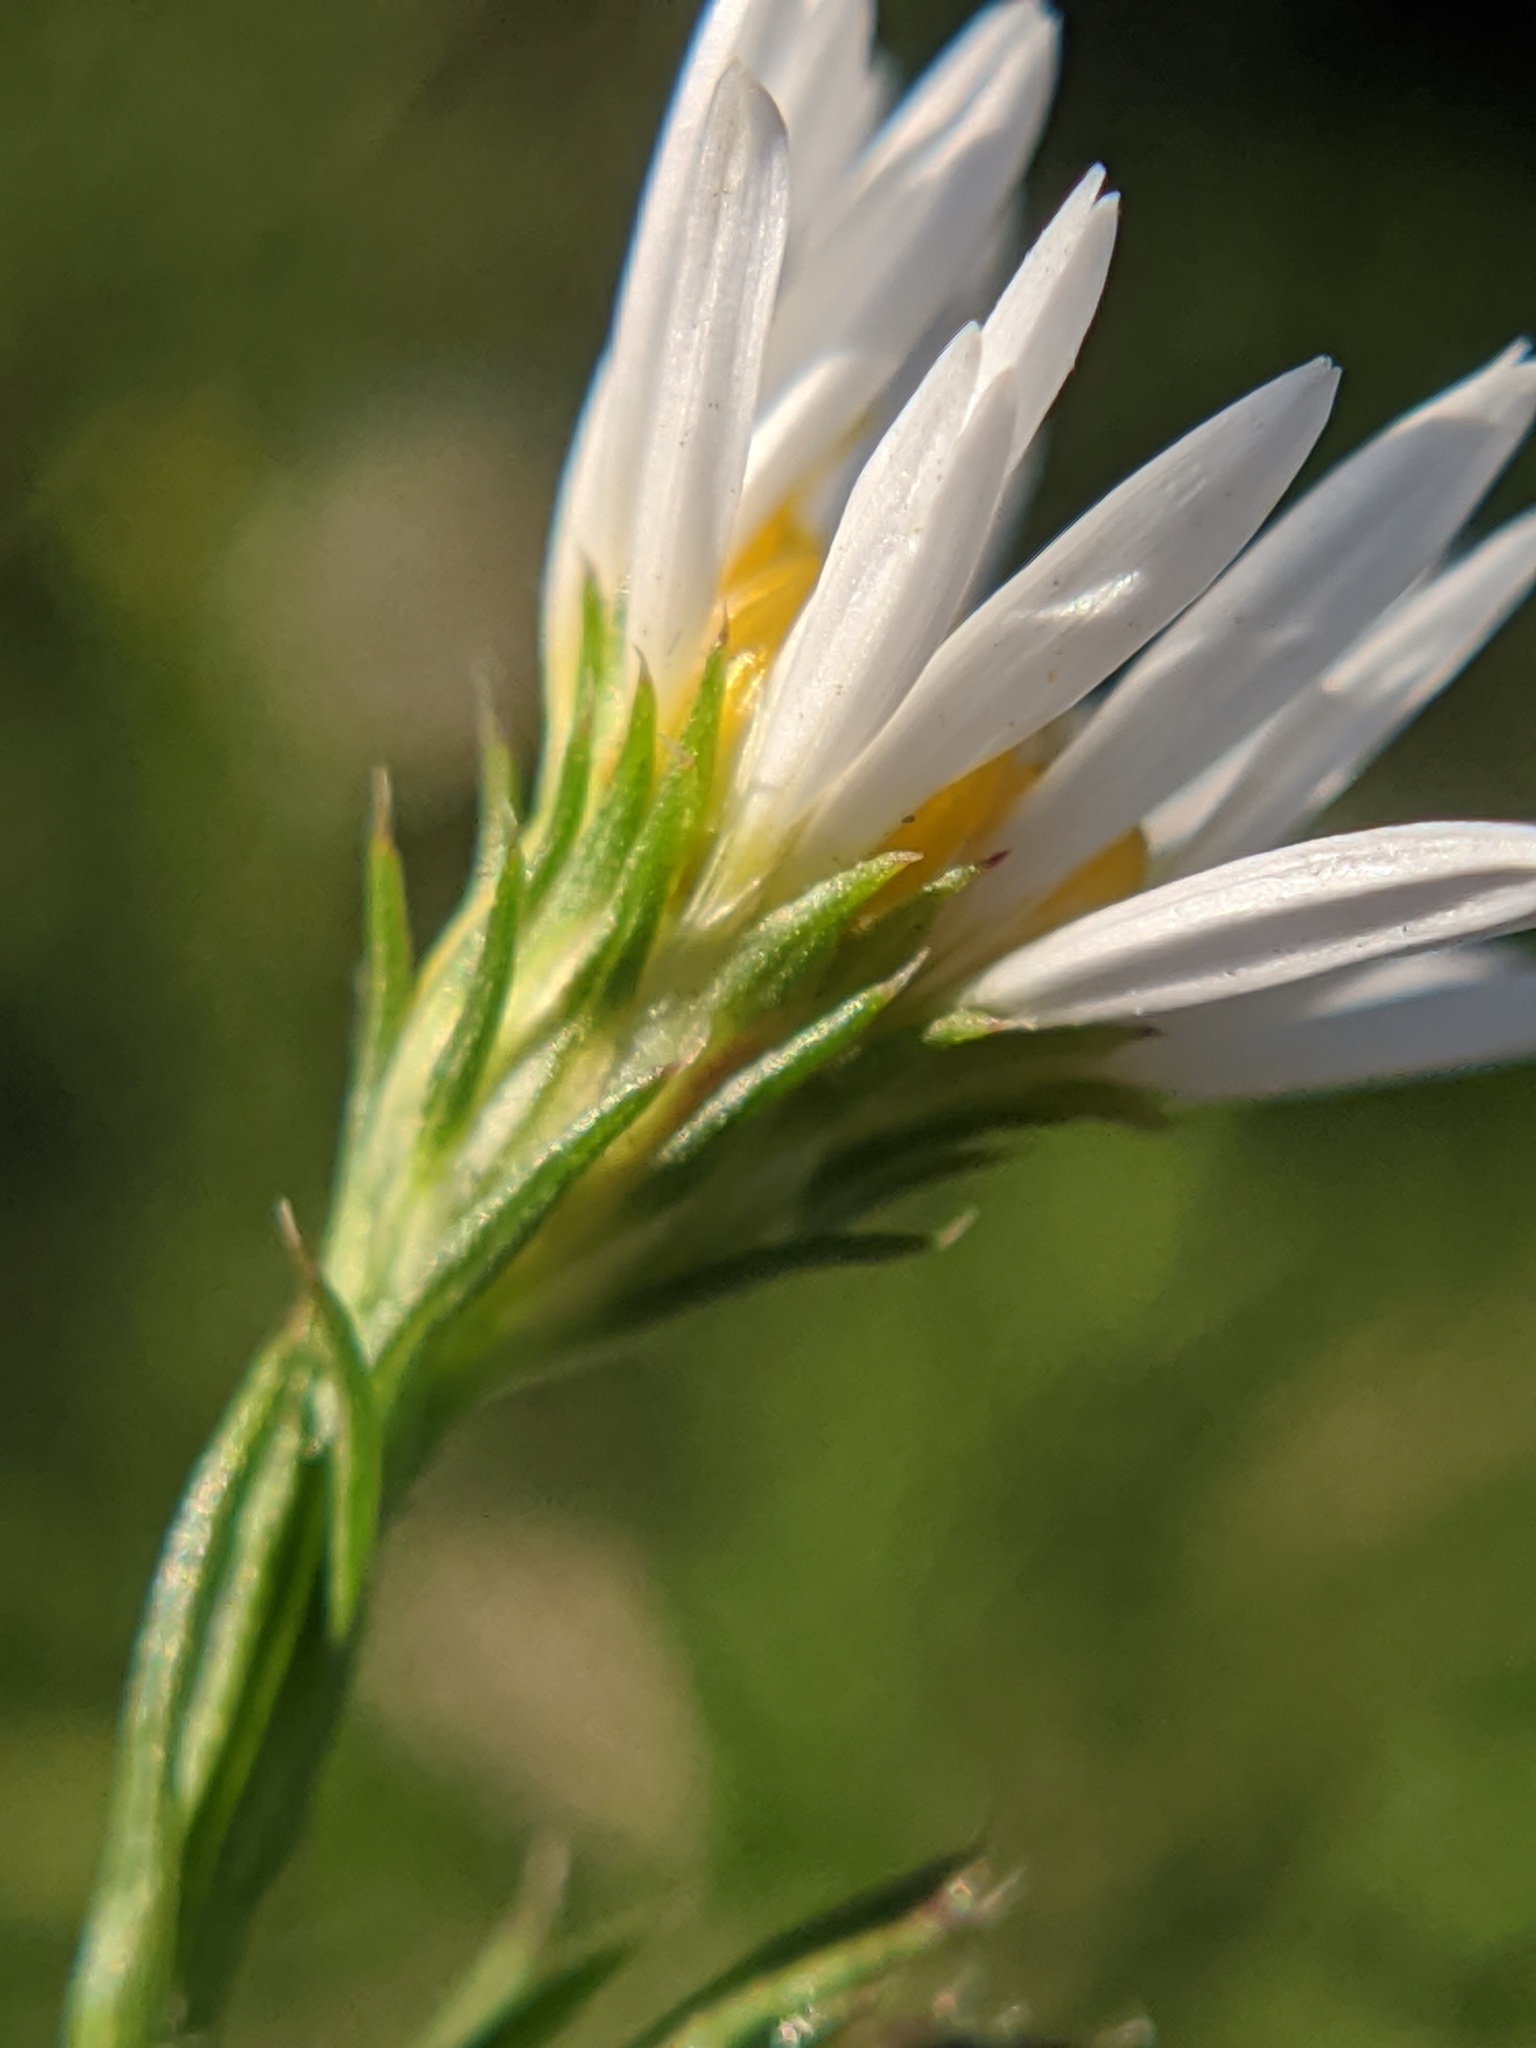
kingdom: Plantae
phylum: Tracheophyta
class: Magnoliopsida
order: Asterales
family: Asteraceae
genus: Symphyotrichum
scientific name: Symphyotrichum pilosum
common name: Awl aster
